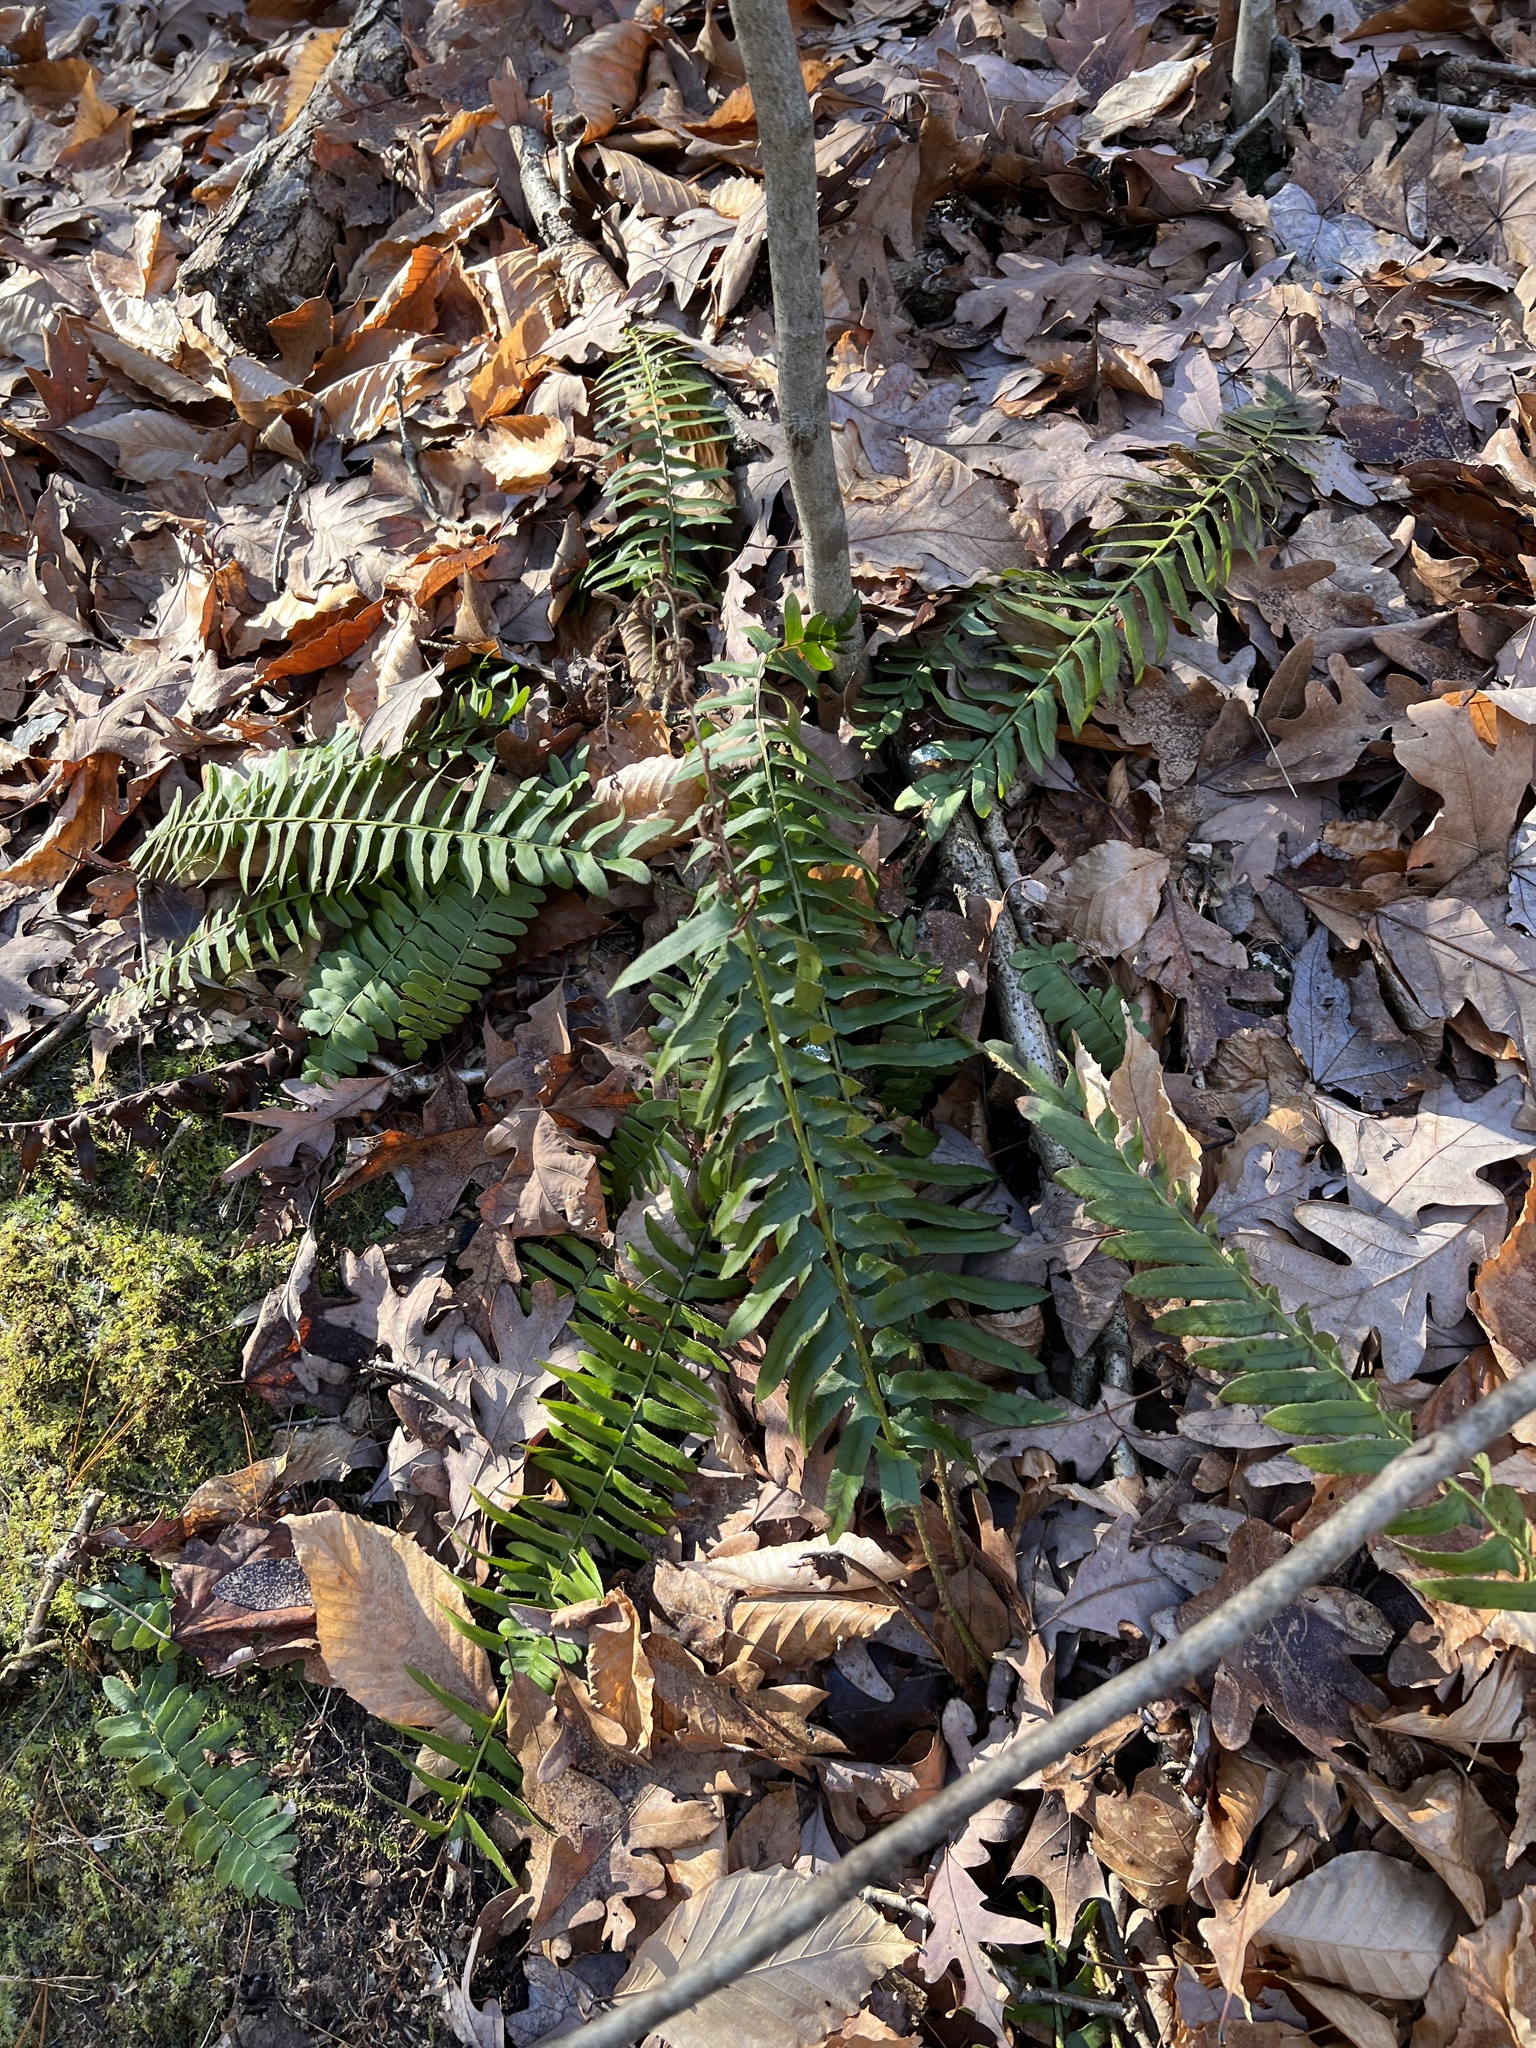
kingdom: Plantae
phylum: Tracheophyta
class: Polypodiopsida
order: Polypodiales
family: Dryopteridaceae
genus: Polystichum
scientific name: Polystichum acrostichoides
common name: Christmas fern
